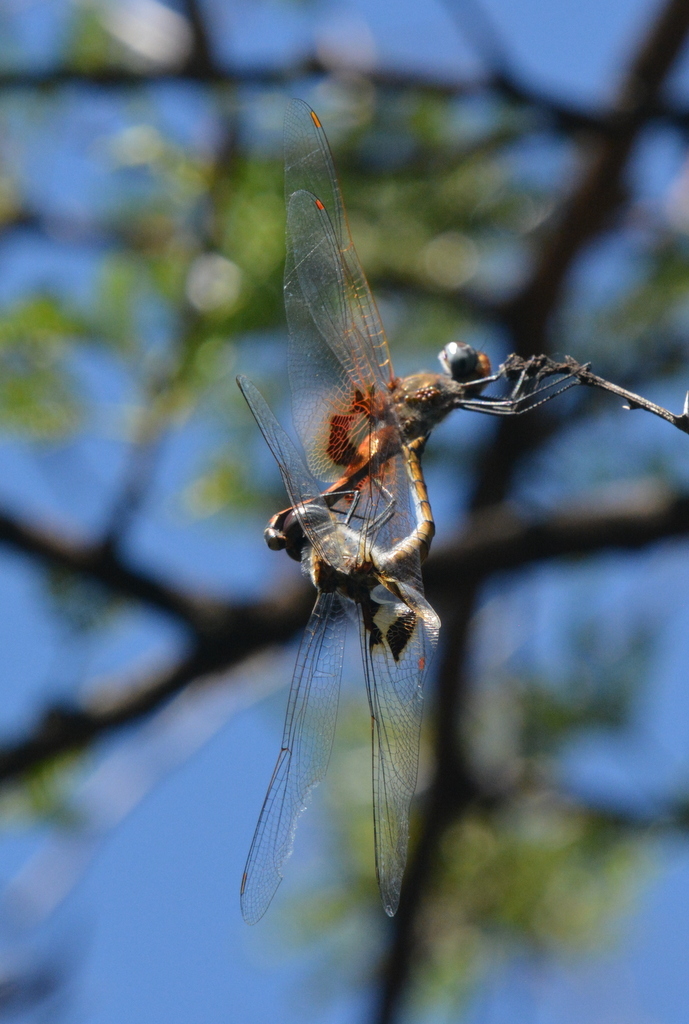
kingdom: Animalia
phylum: Arthropoda
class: Insecta
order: Odonata
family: Libellulidae
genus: Tramea
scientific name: Tramea basilaris
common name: Keyhole glider
